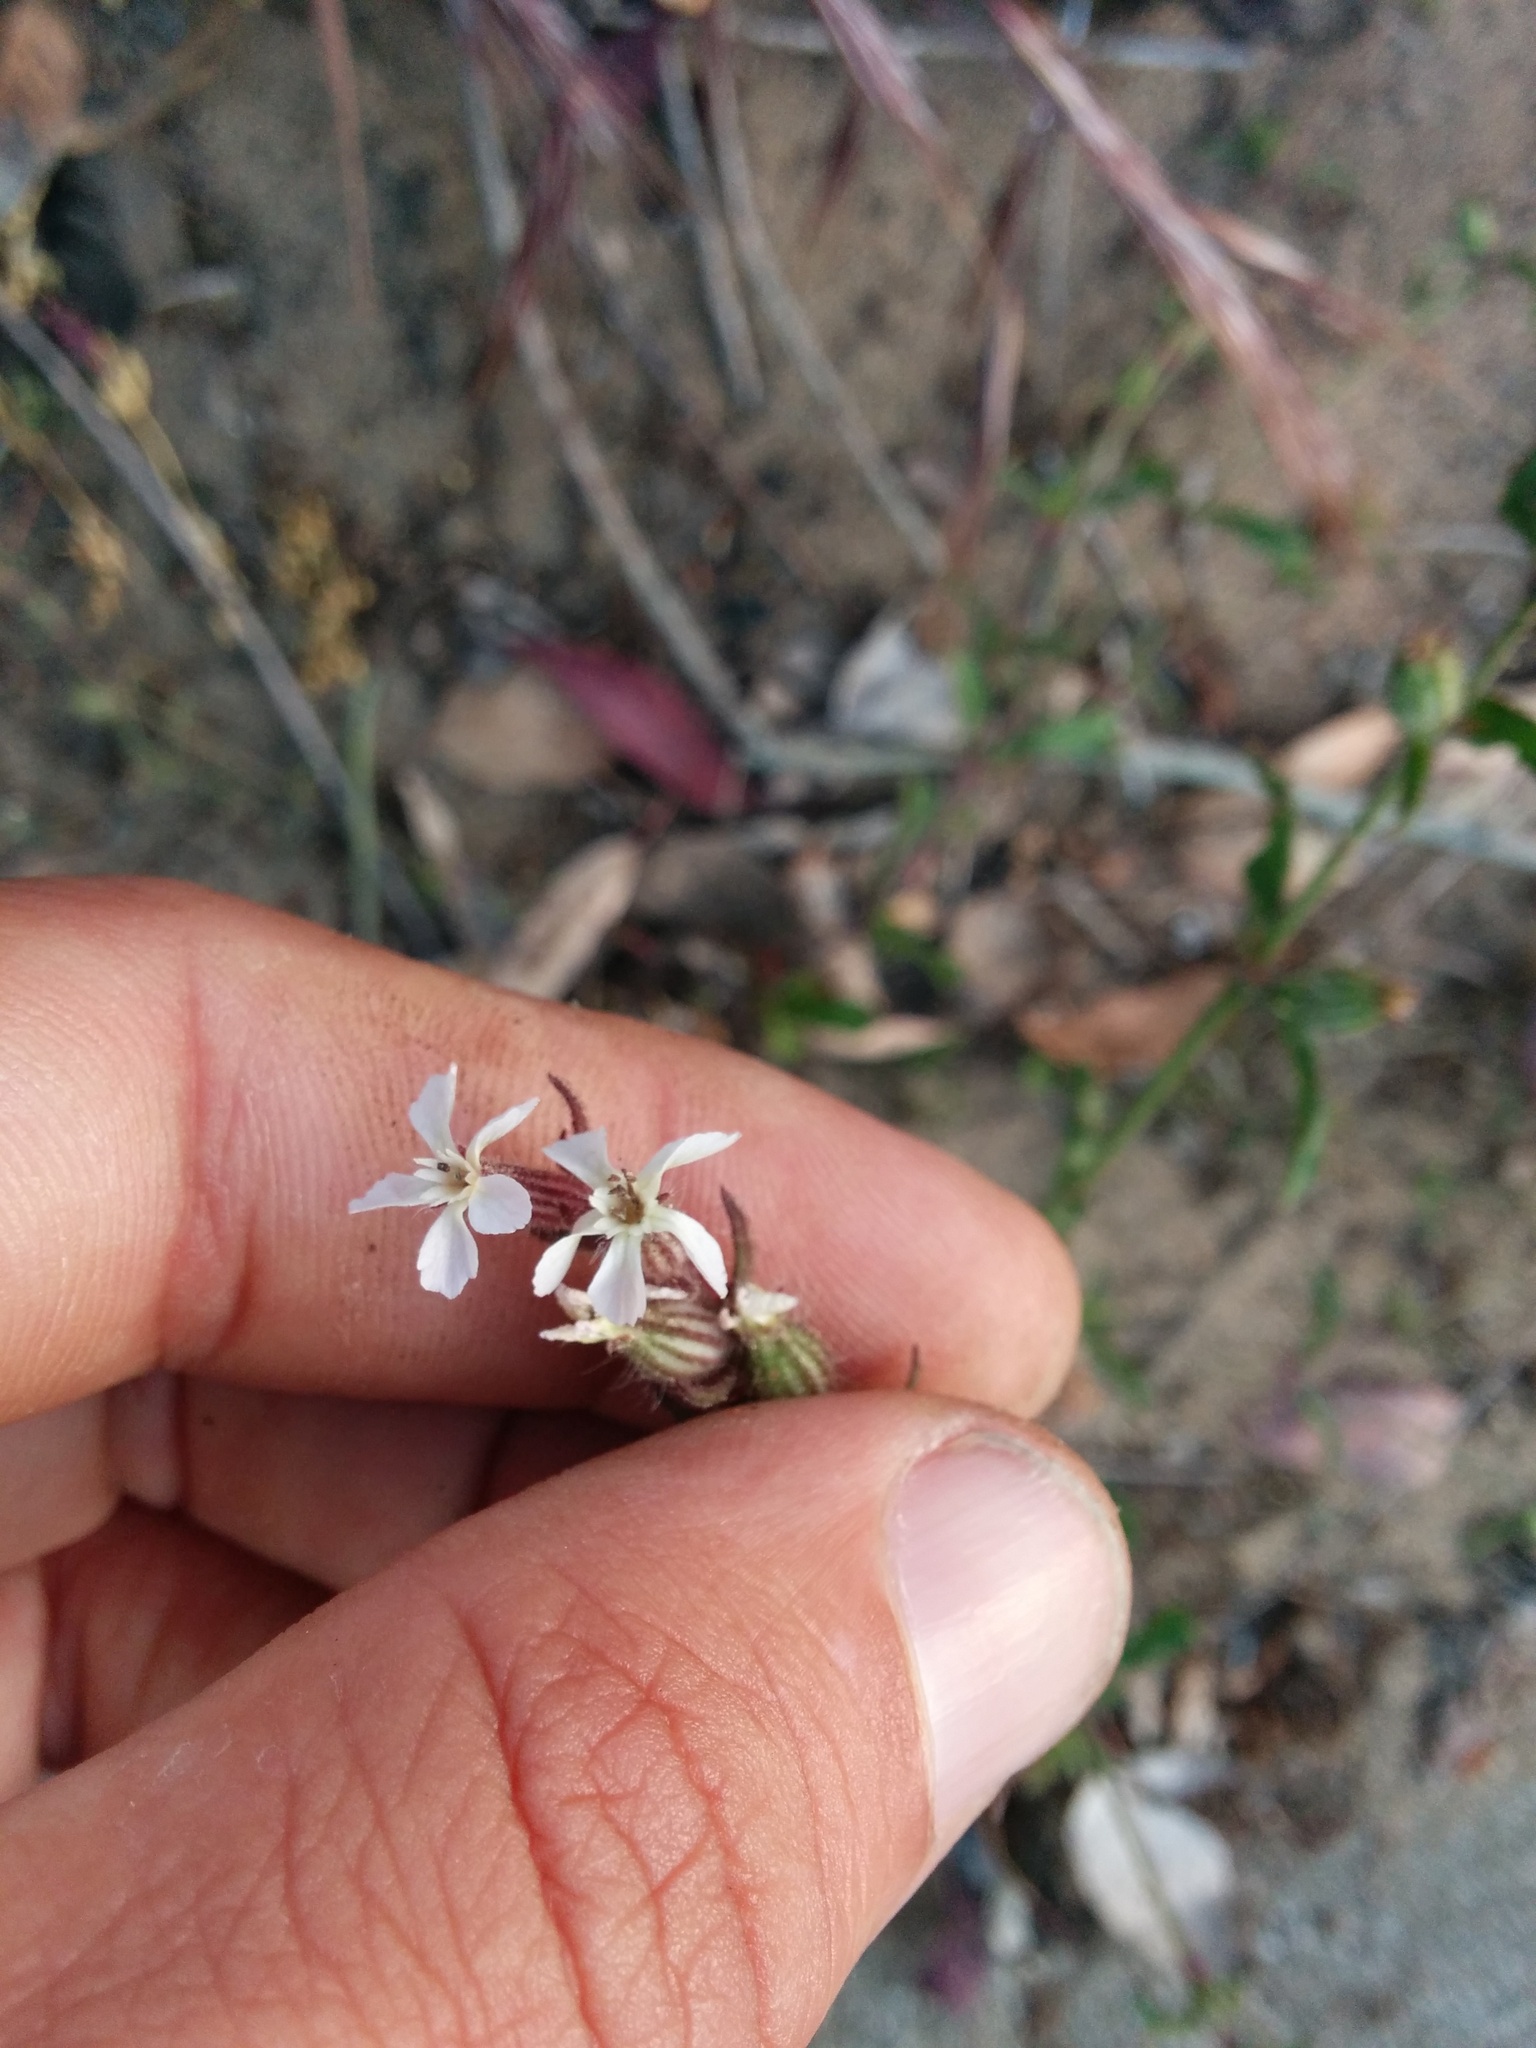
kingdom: Plantae
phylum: Tracheophyta
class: Magnoliopsida
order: Caryophyllales
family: Caryophyllaceae
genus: Silene
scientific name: Silene gallica
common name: Small-flowered catchfly
